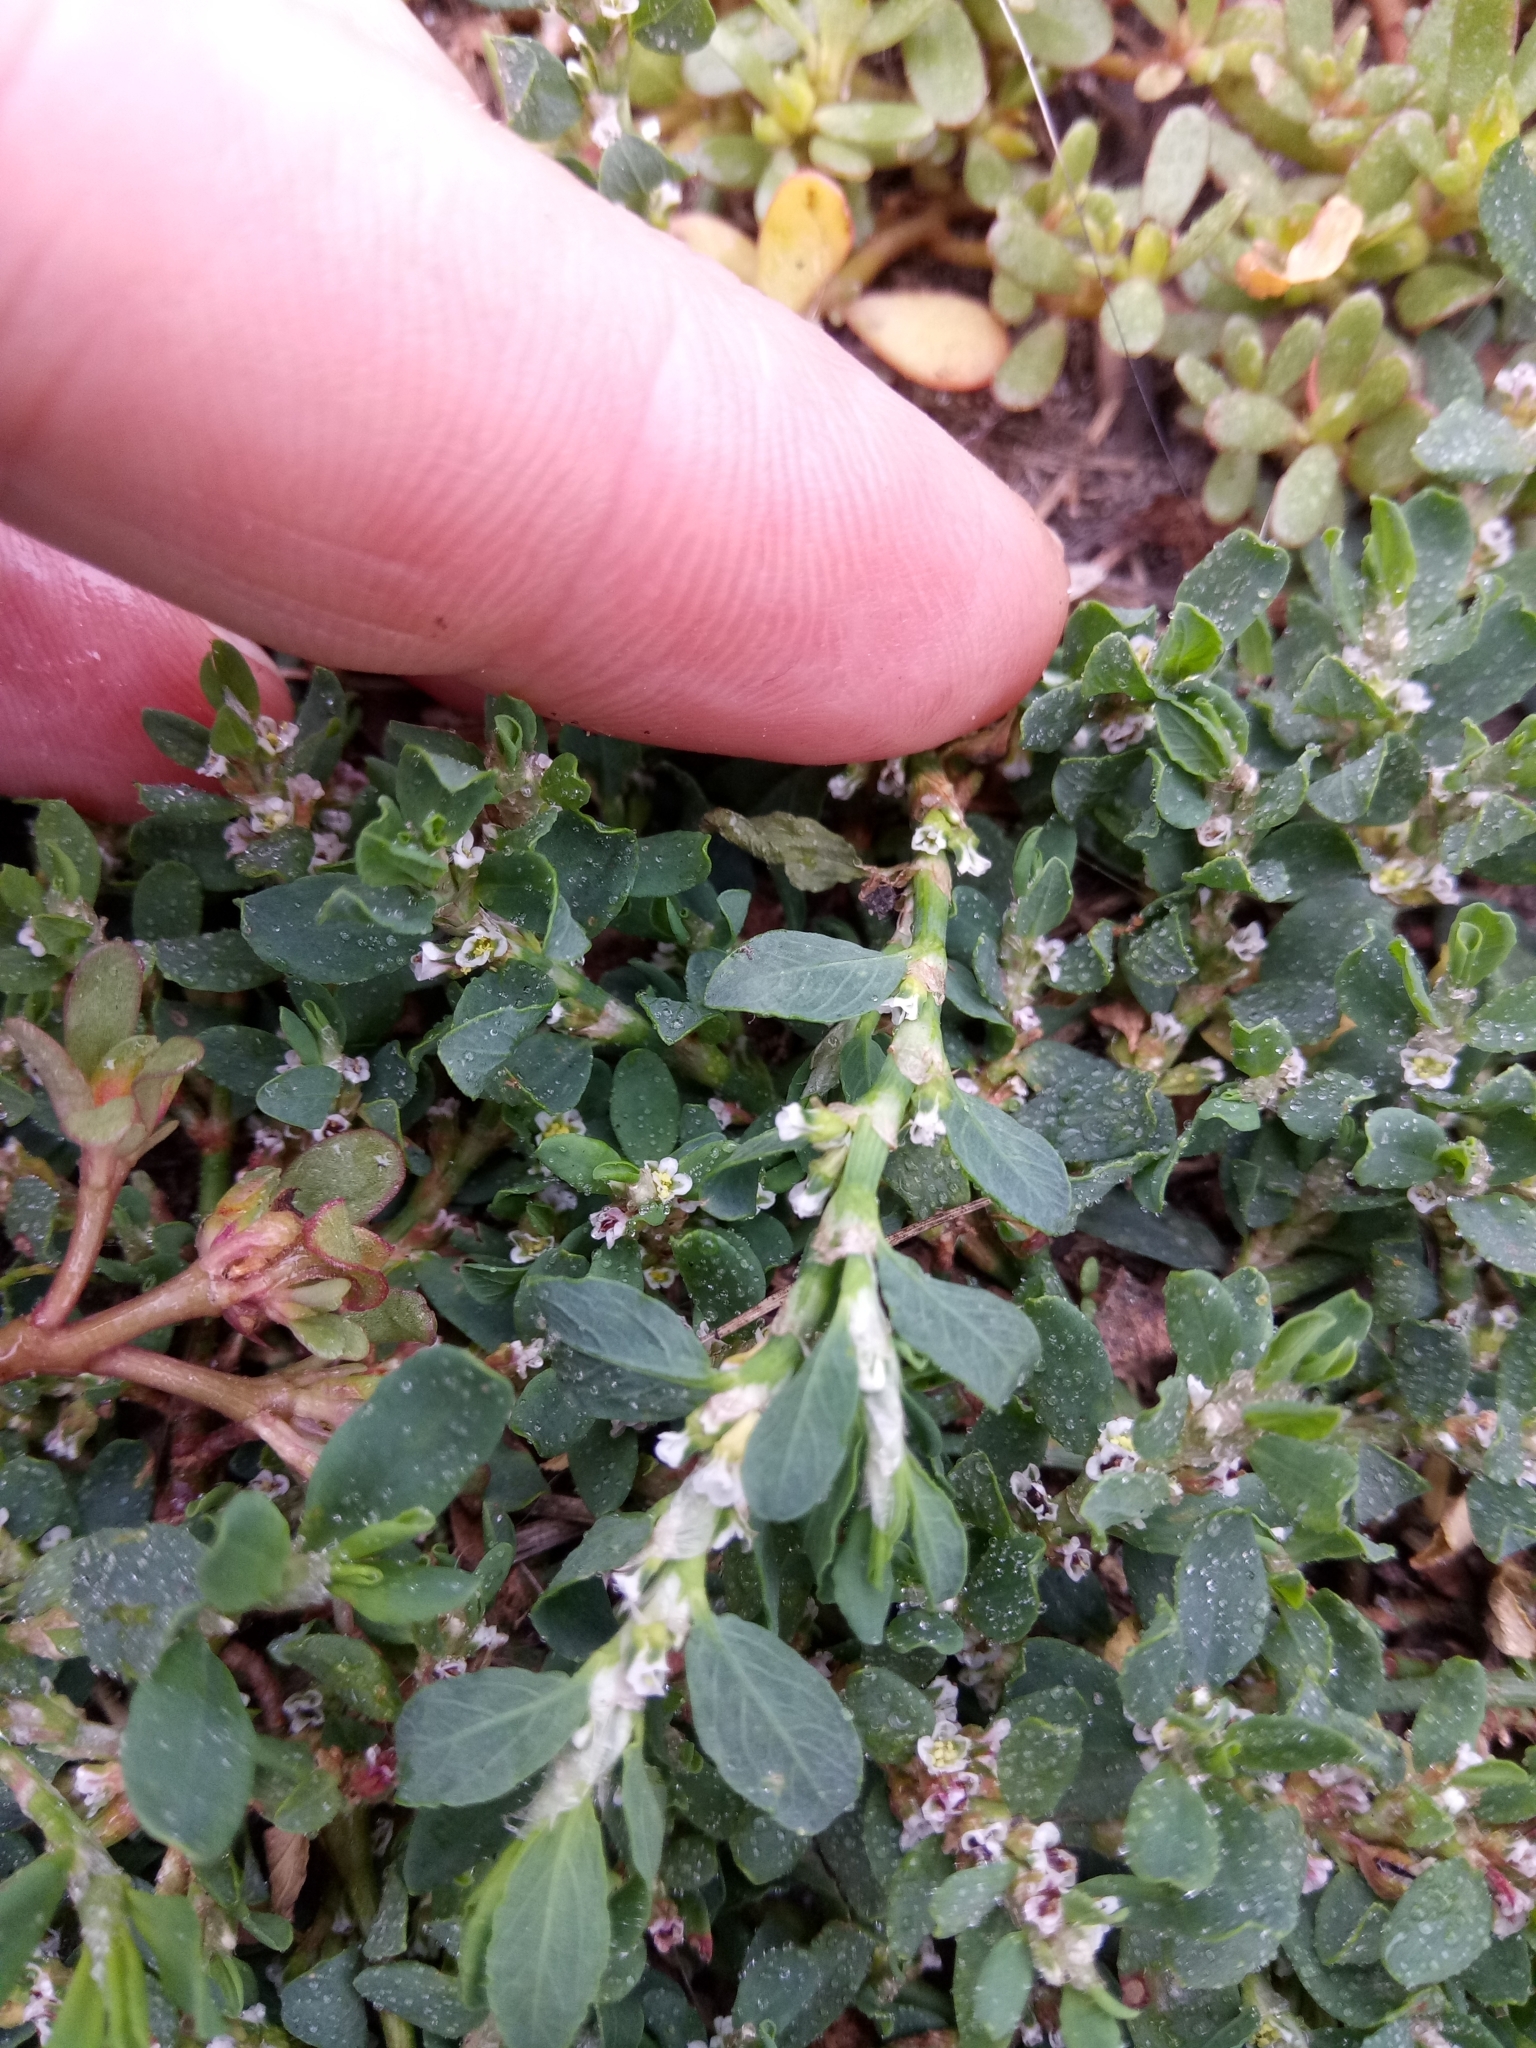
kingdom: Plantae
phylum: Tracheophyta
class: Magnoliopsida
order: Caryophyllales
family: Polygonaceae
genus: Polygonum
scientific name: Polygonum aviculare
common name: Prostrate knotweed
